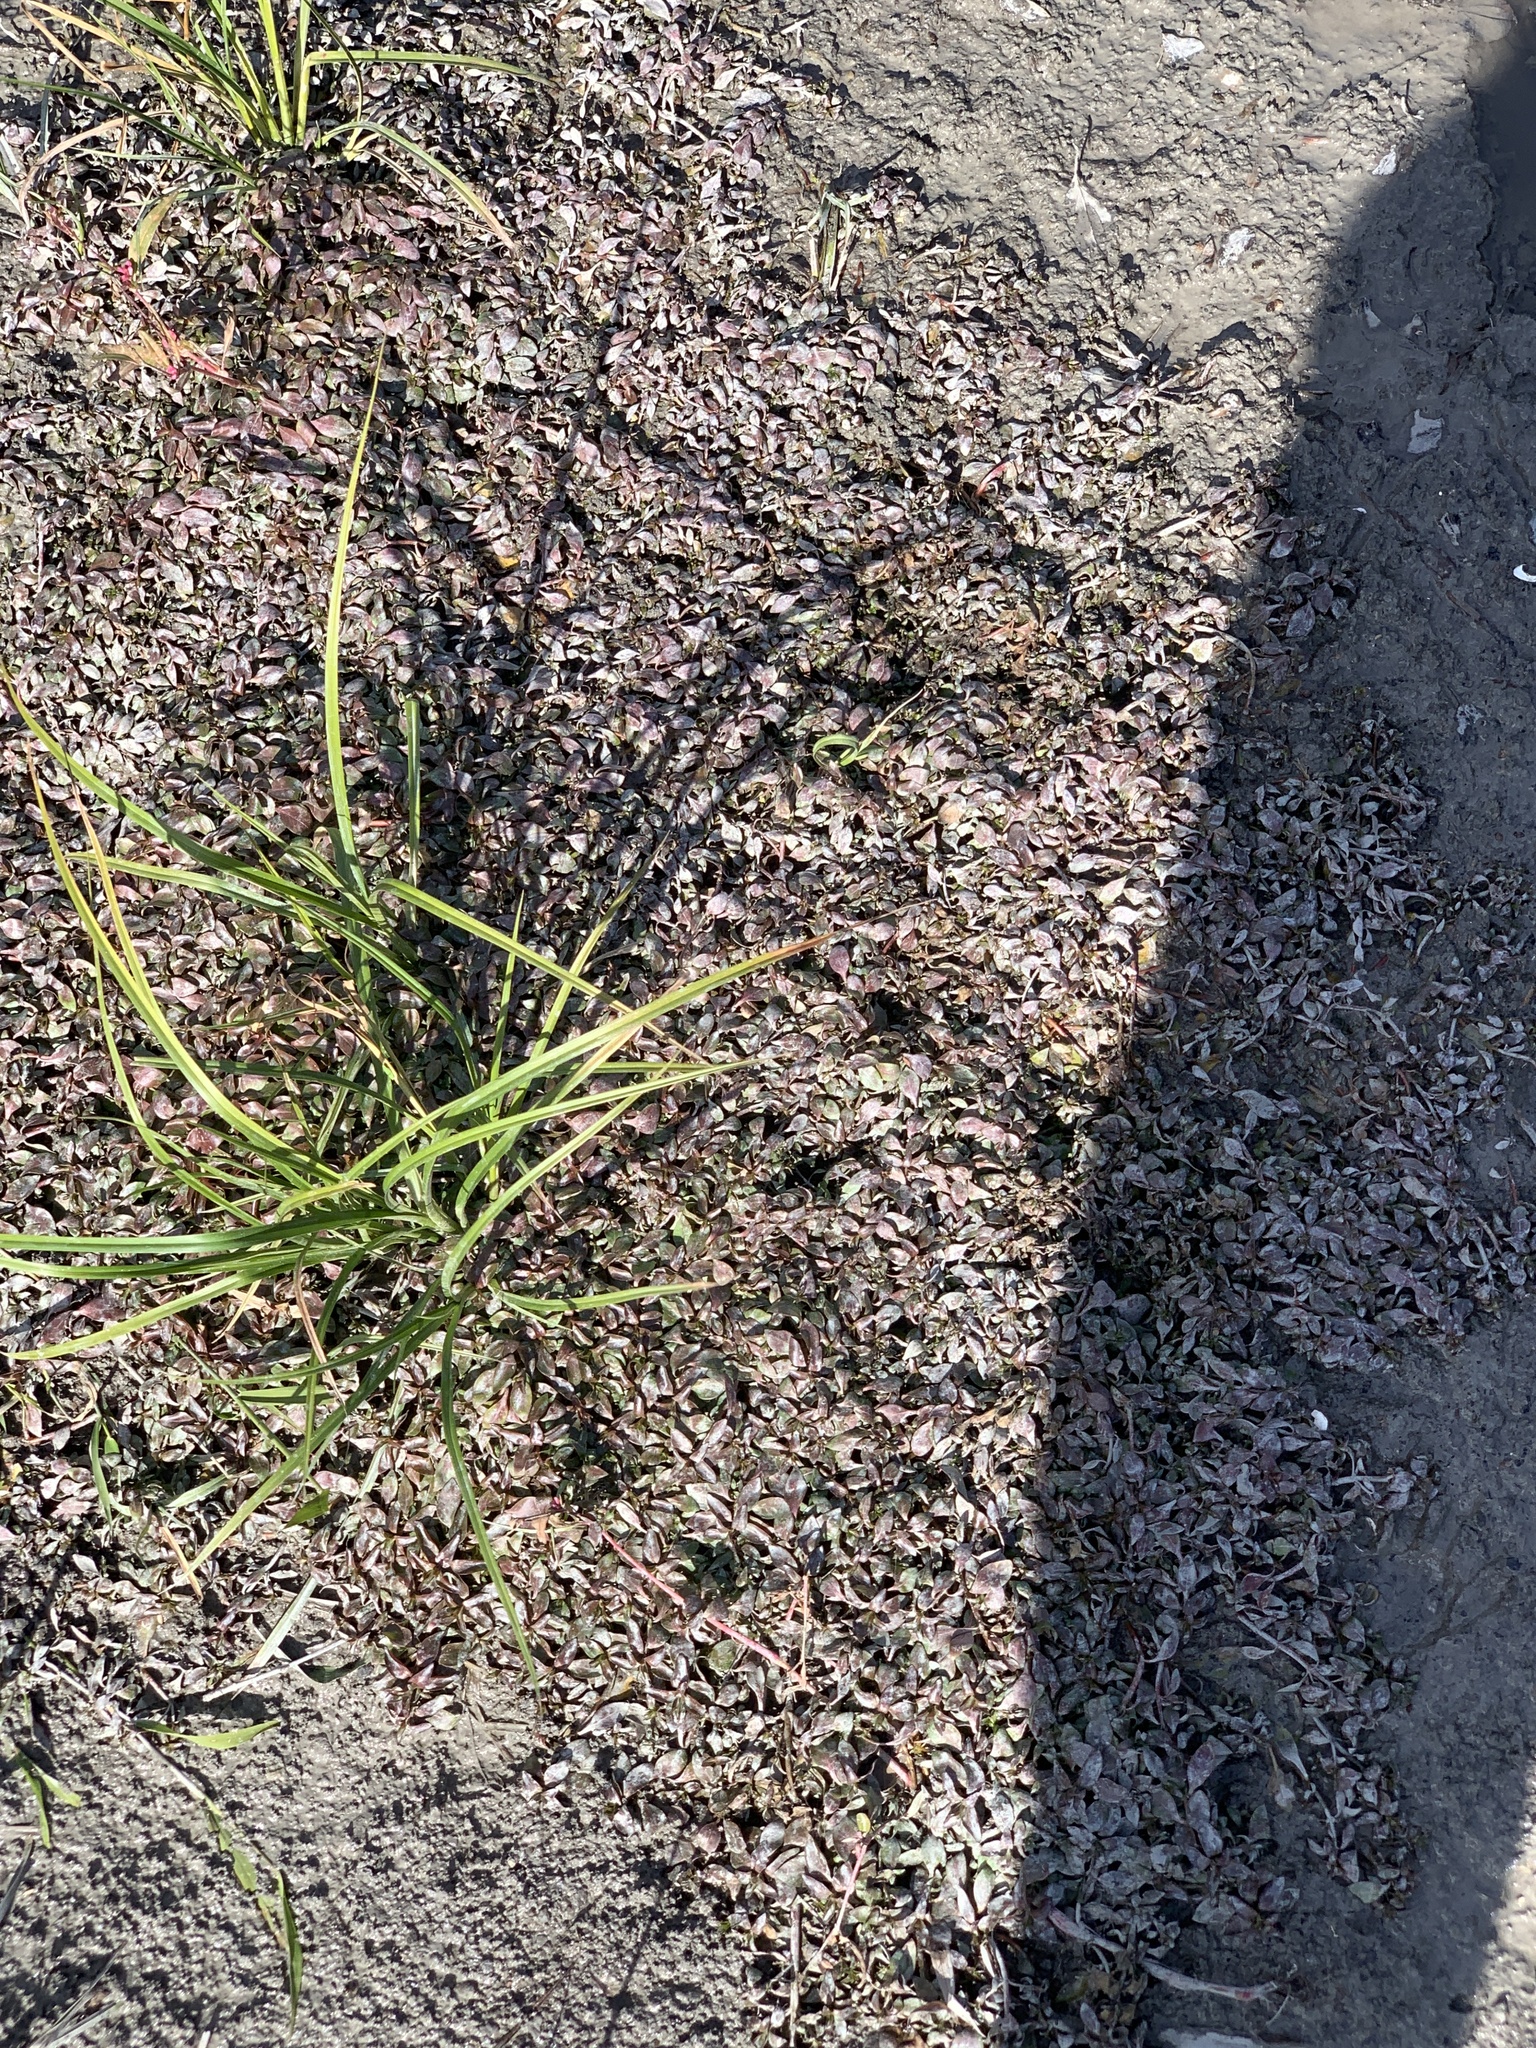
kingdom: Plantae
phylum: Tracheophyta
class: Magnoliopsida
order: Myrtales
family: Onagraceae
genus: Ludwigia
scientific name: Ludwigia palustris
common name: Hampshire-purslane
